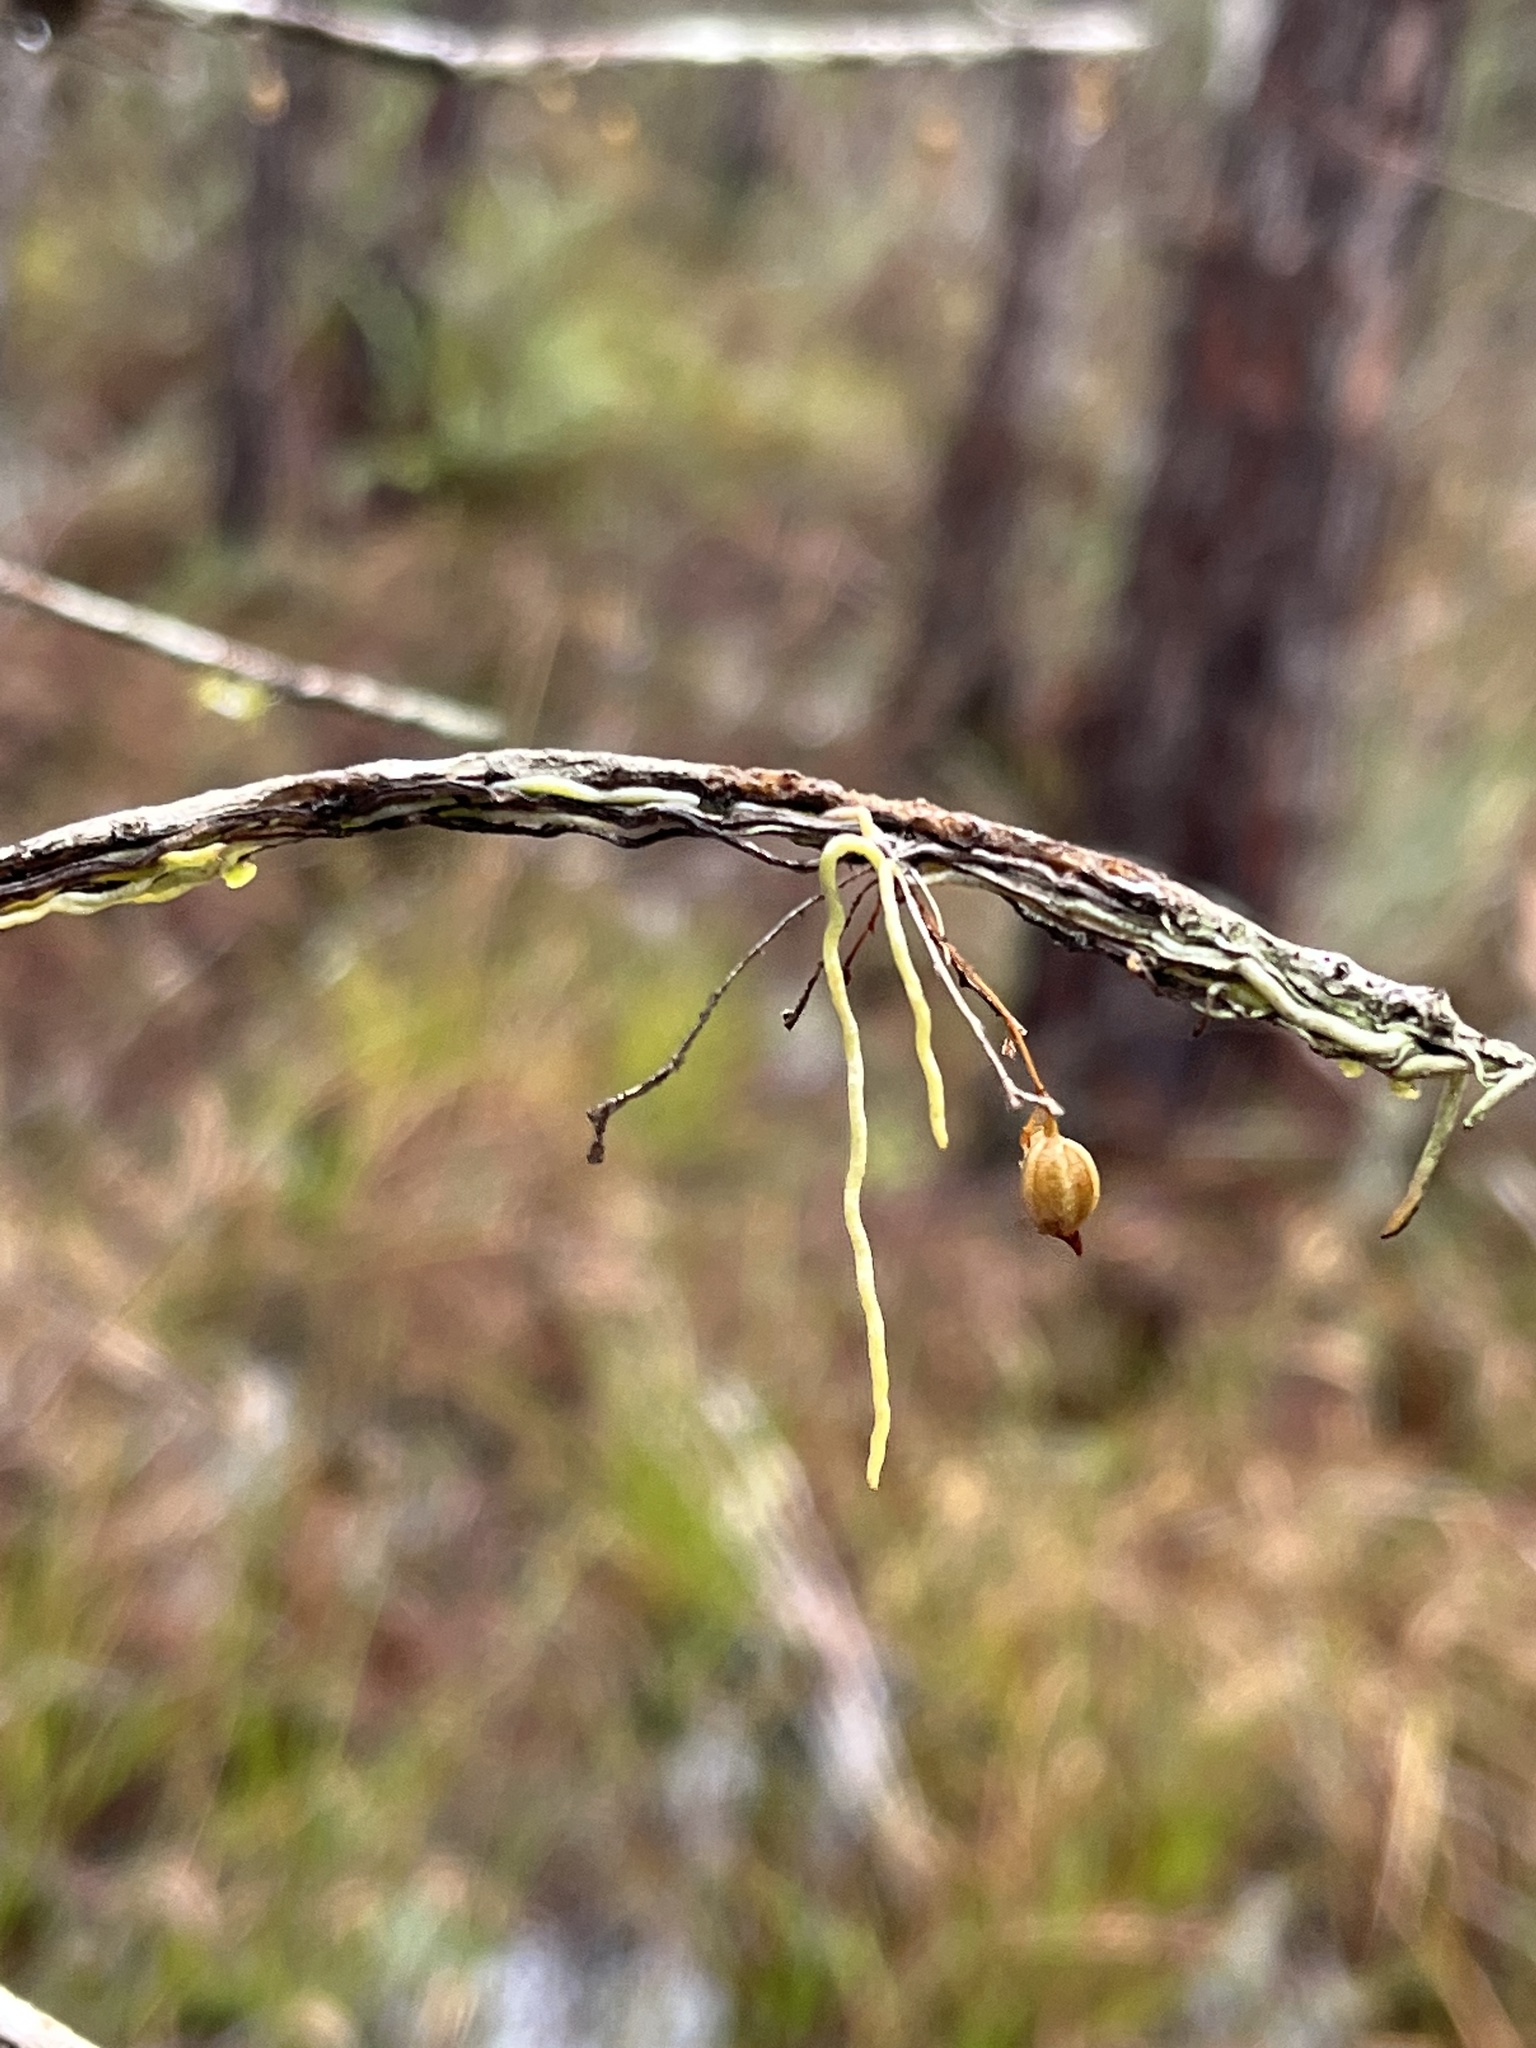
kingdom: Plantae
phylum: Tracheophyta
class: Liliopsida
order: Asparagales
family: Orchidaceae
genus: Dendrophylax
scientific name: Dendrophylax porrectus
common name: Needleroot airplant orchid
